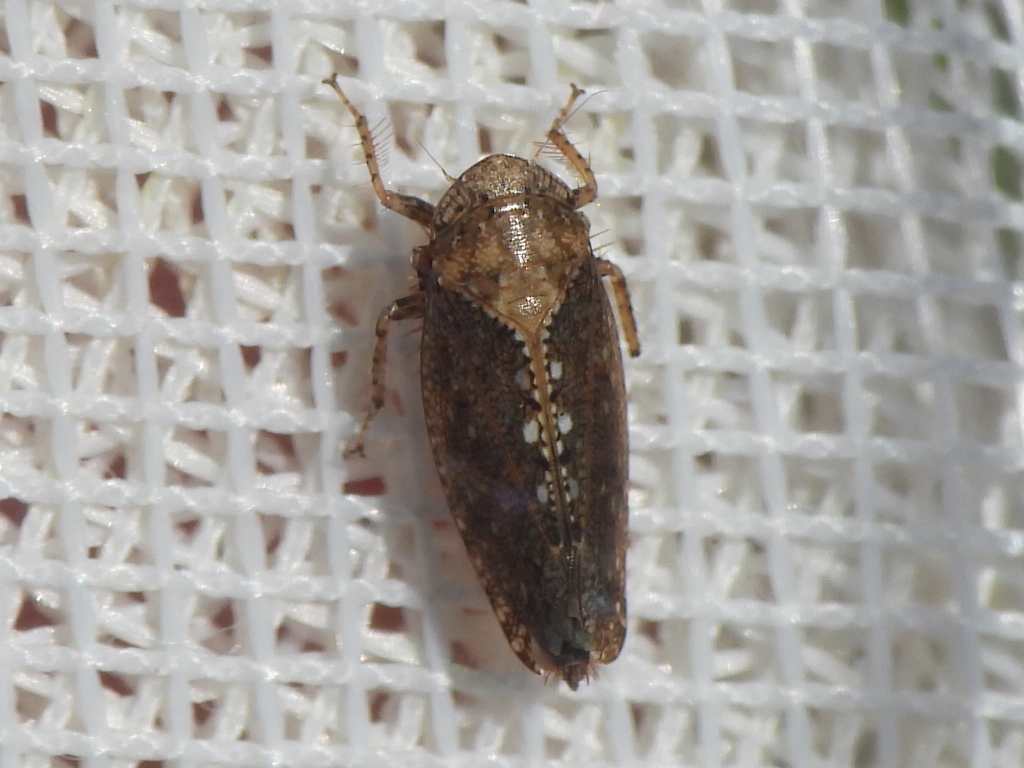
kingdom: Animalia
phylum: Arthropoda
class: Insecta
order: Hemiptera
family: Cicadellidae
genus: Excultanus
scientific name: Excultanus excultus
